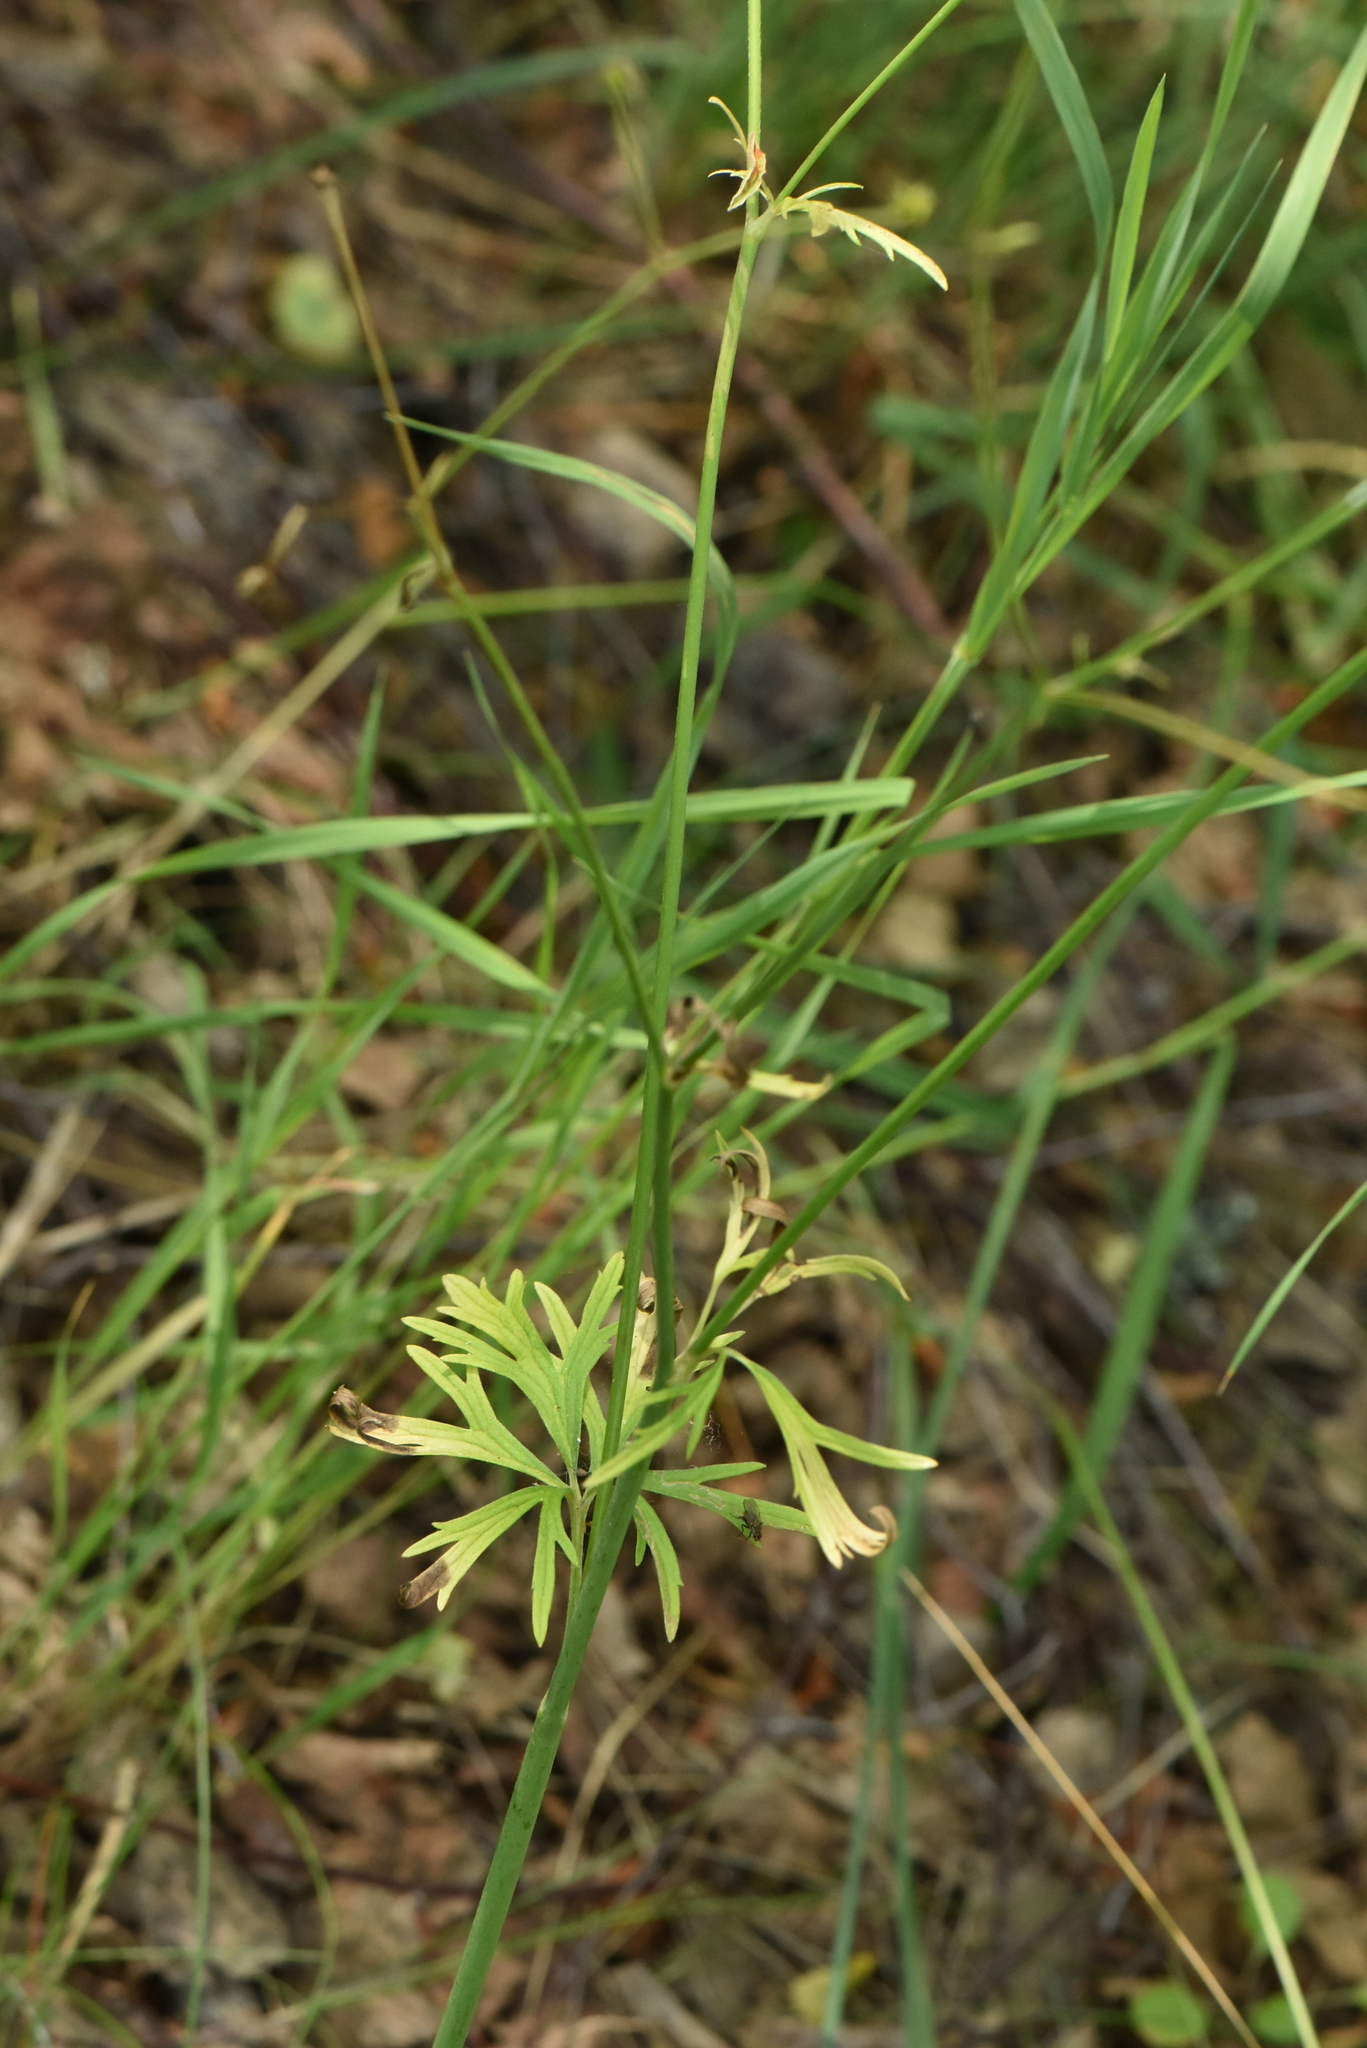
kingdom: Plantae
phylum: Tracheophyta
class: Magnoliopsida
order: Ranunculales
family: Ranunculaceae
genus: Ranunculus
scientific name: Ranunculus acris
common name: Meadow buttercup
